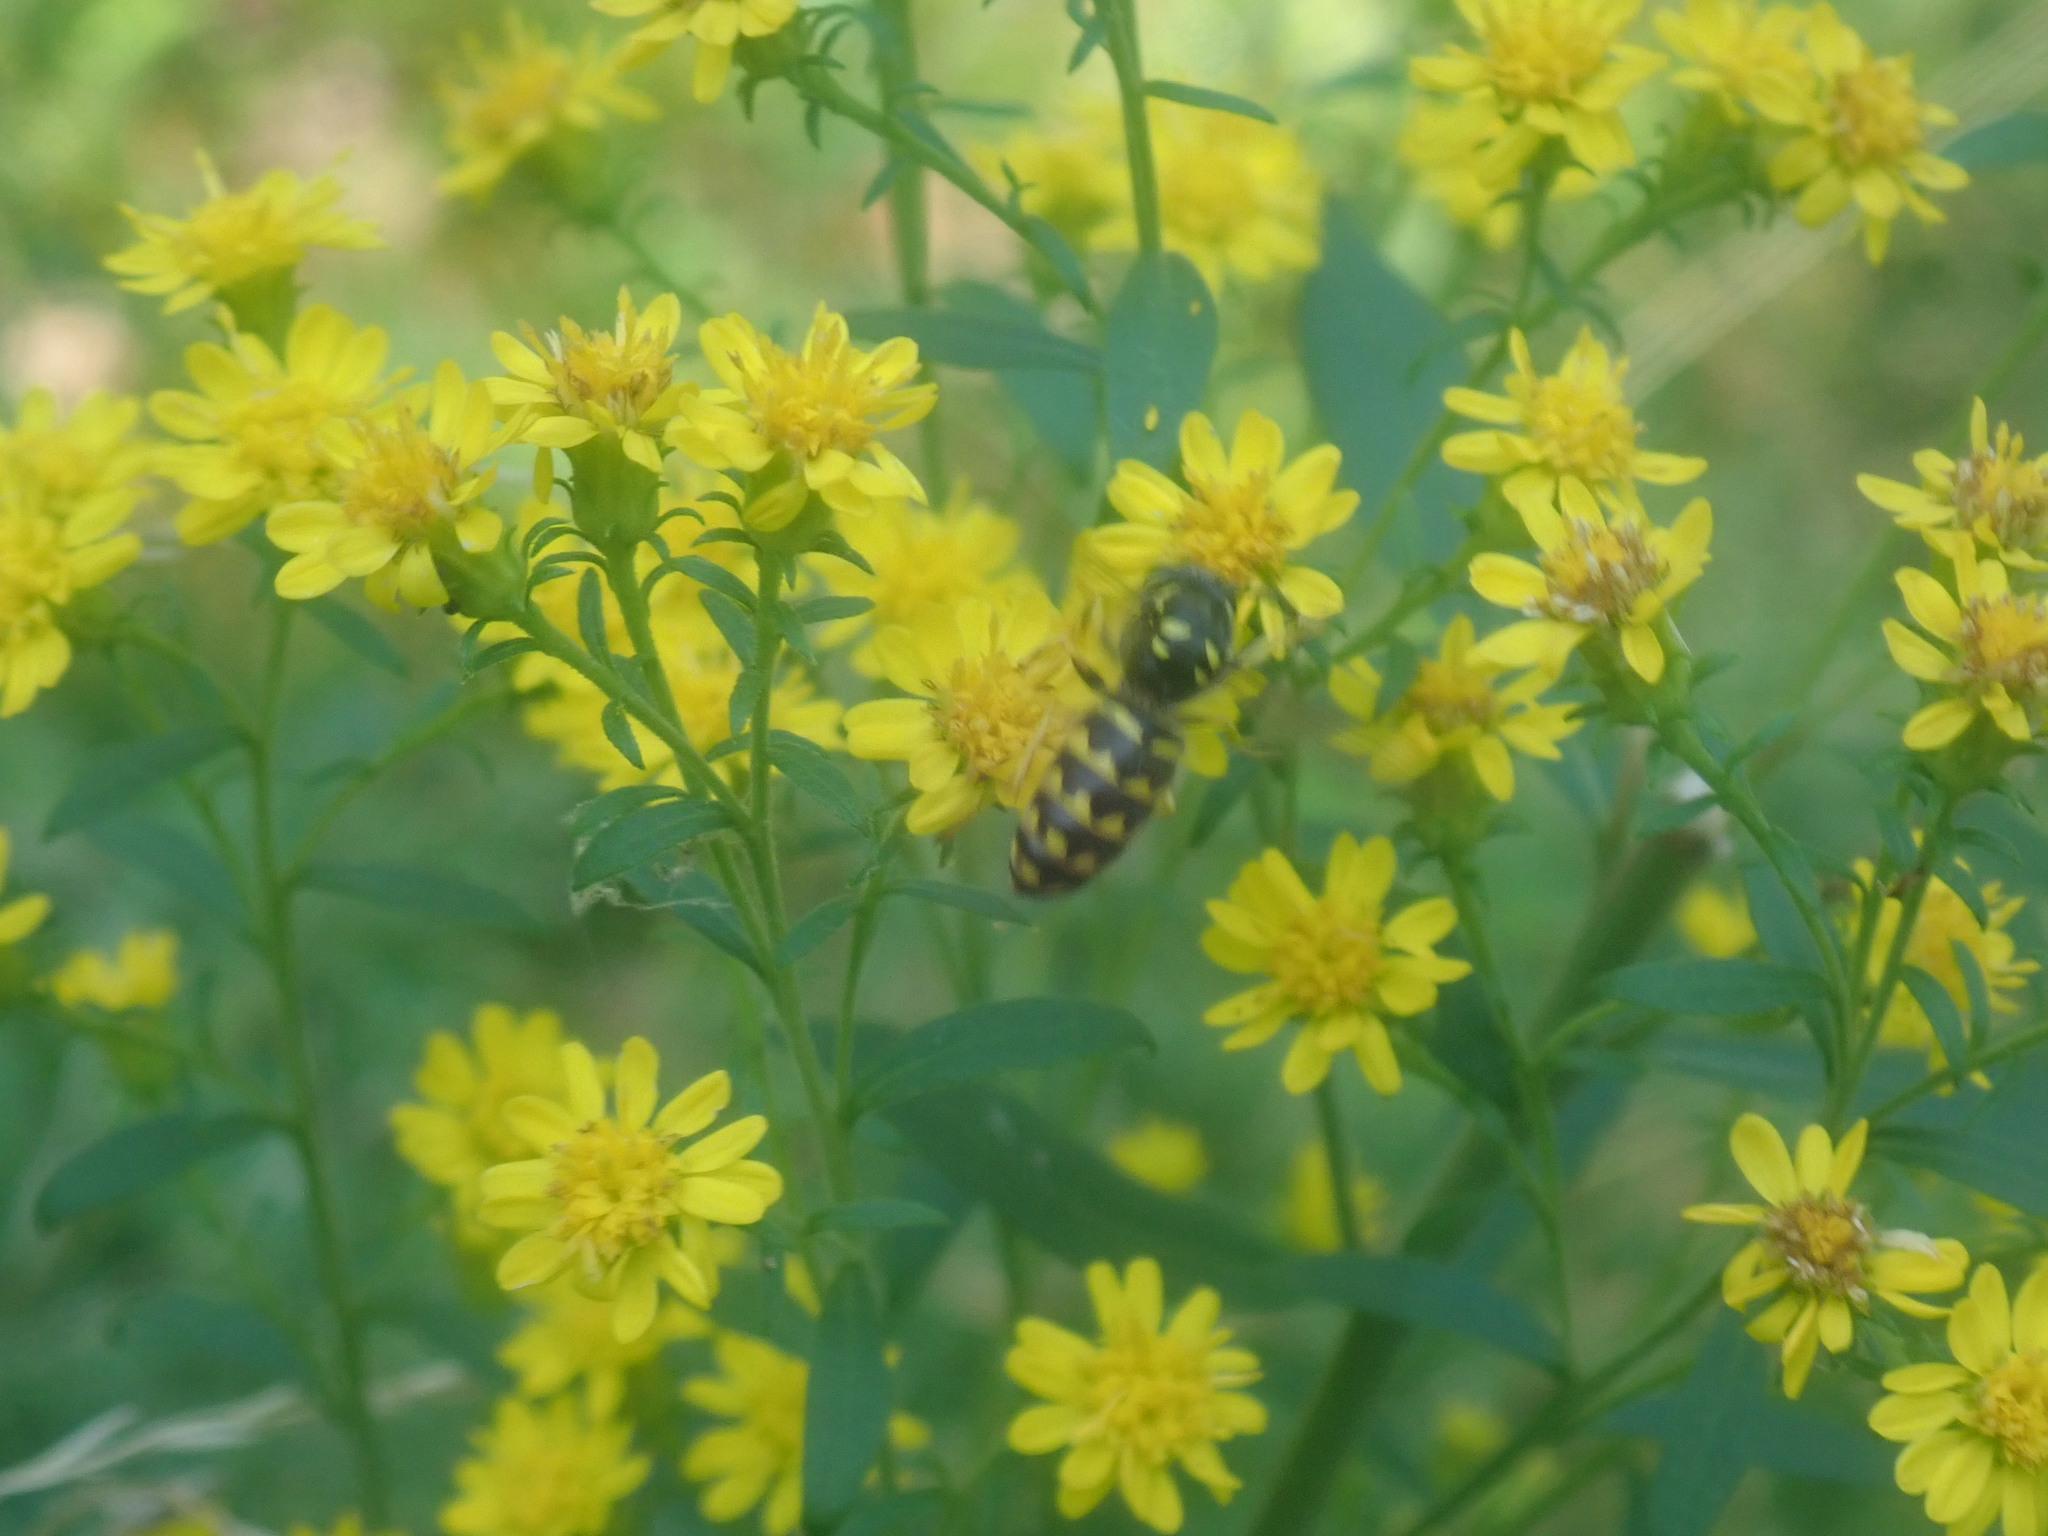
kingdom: Animalia
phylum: Arthropoda
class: Insecta
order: Hymenoptera
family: Vespidae
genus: Dolichovespula
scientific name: Dolichovespula arenaria
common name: Aerial yellowjacket
